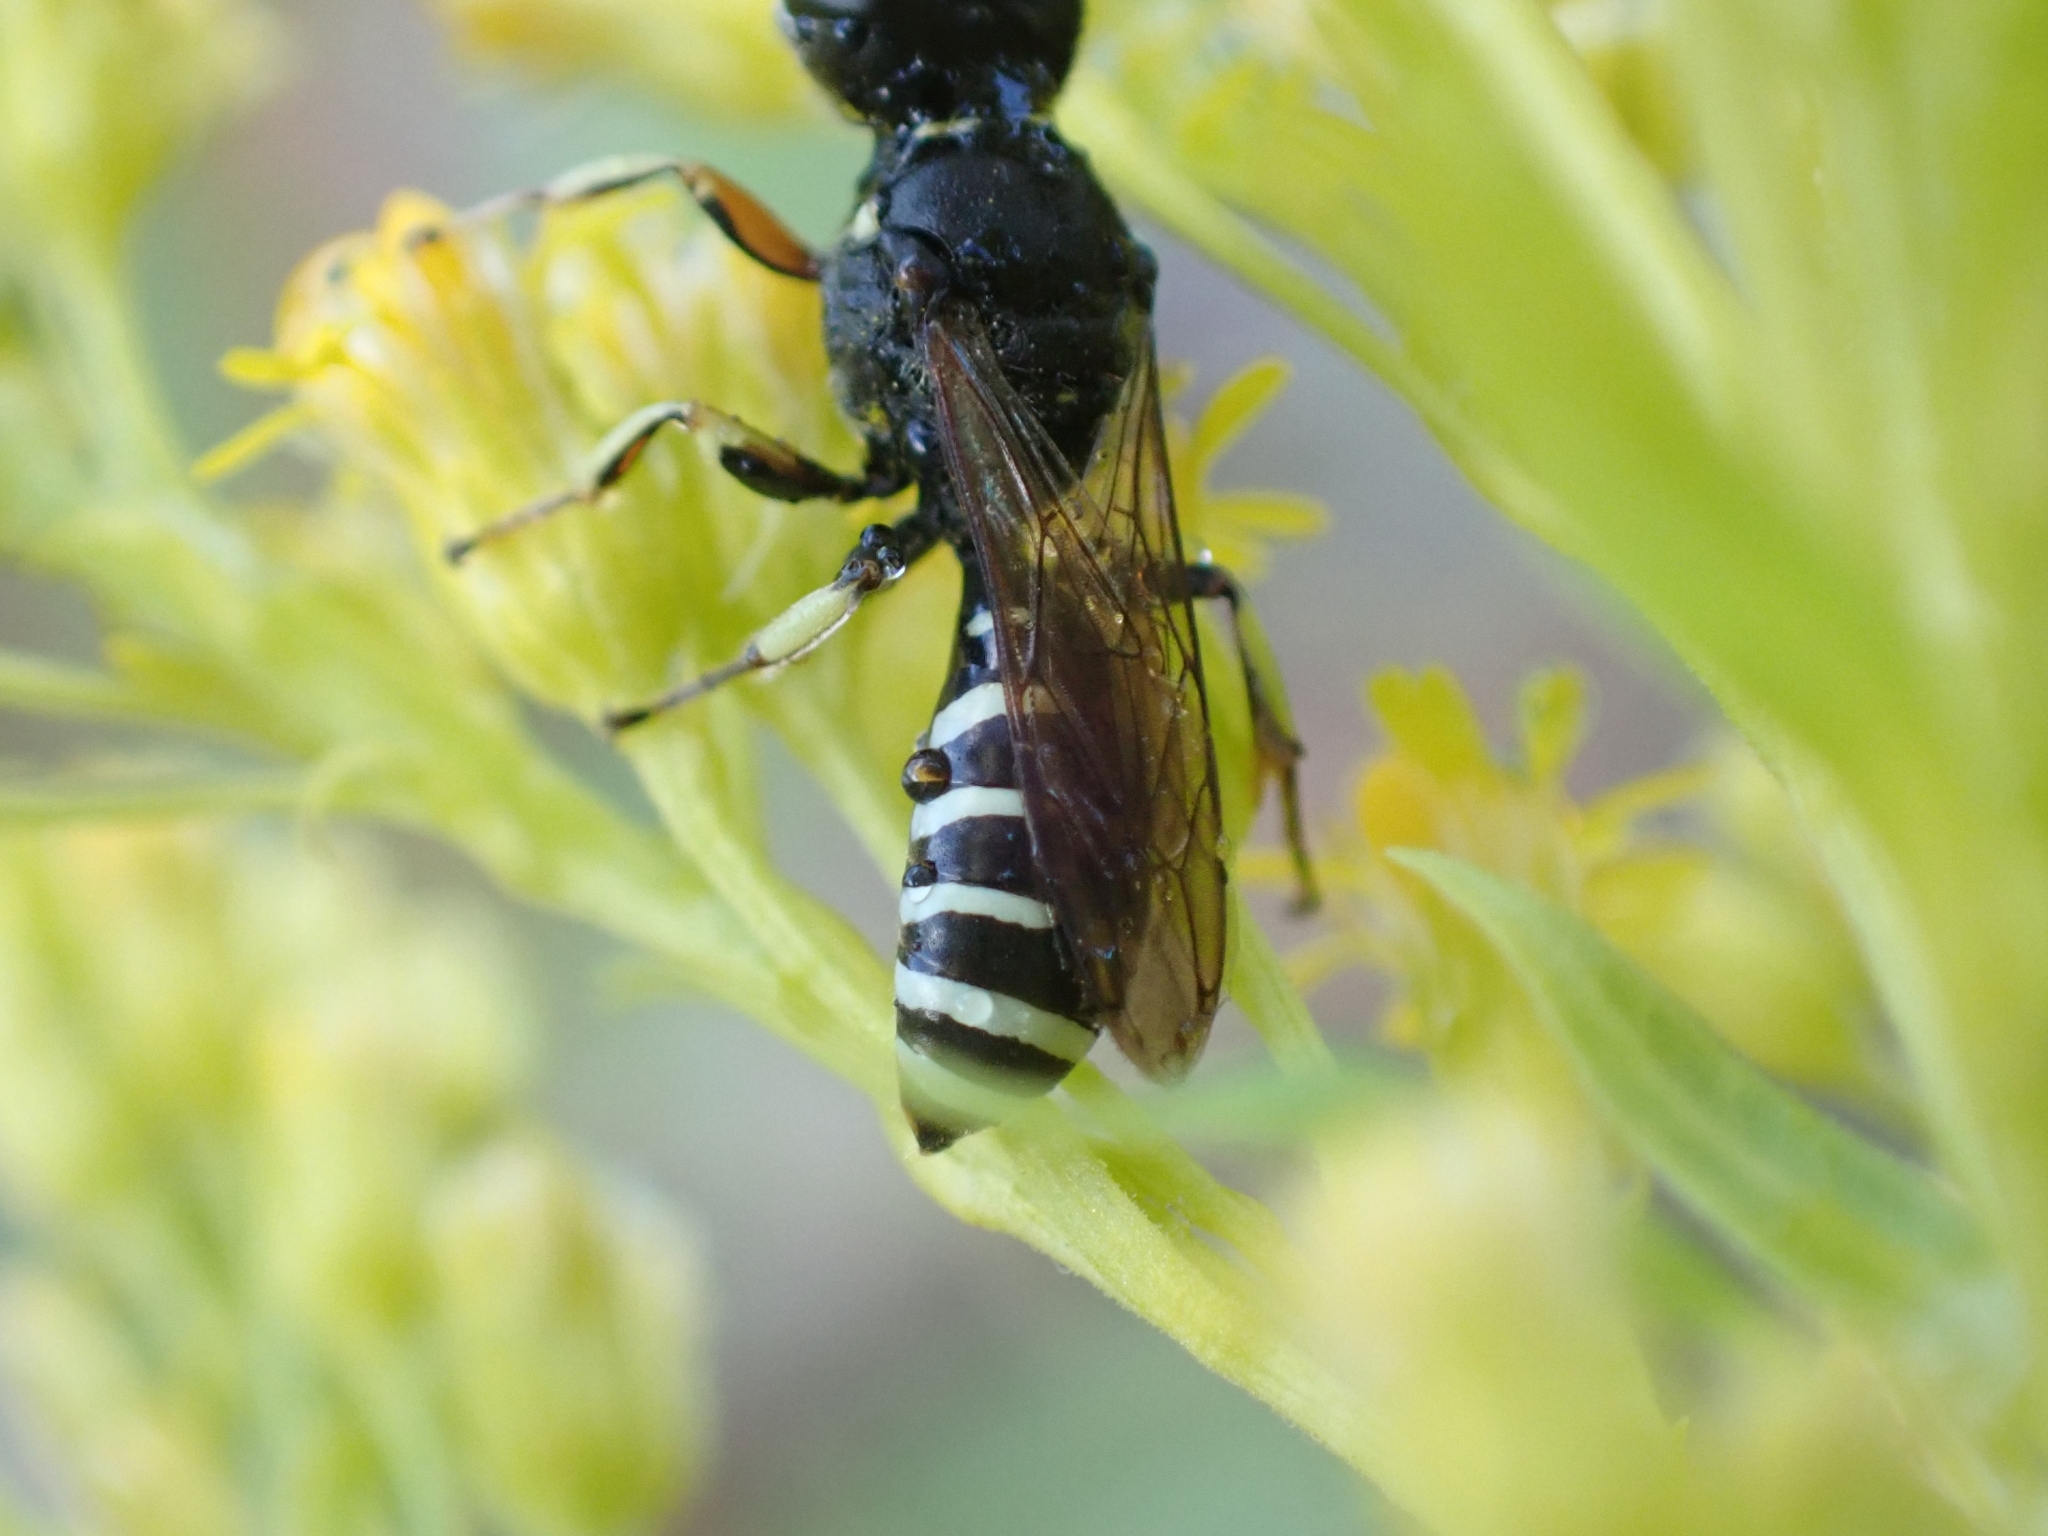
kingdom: Animalia
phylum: Arthropoda
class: Insecta
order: Hymenoptera
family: Crabronidae
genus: Ectemnius
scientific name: Ectemnius ruficornis
